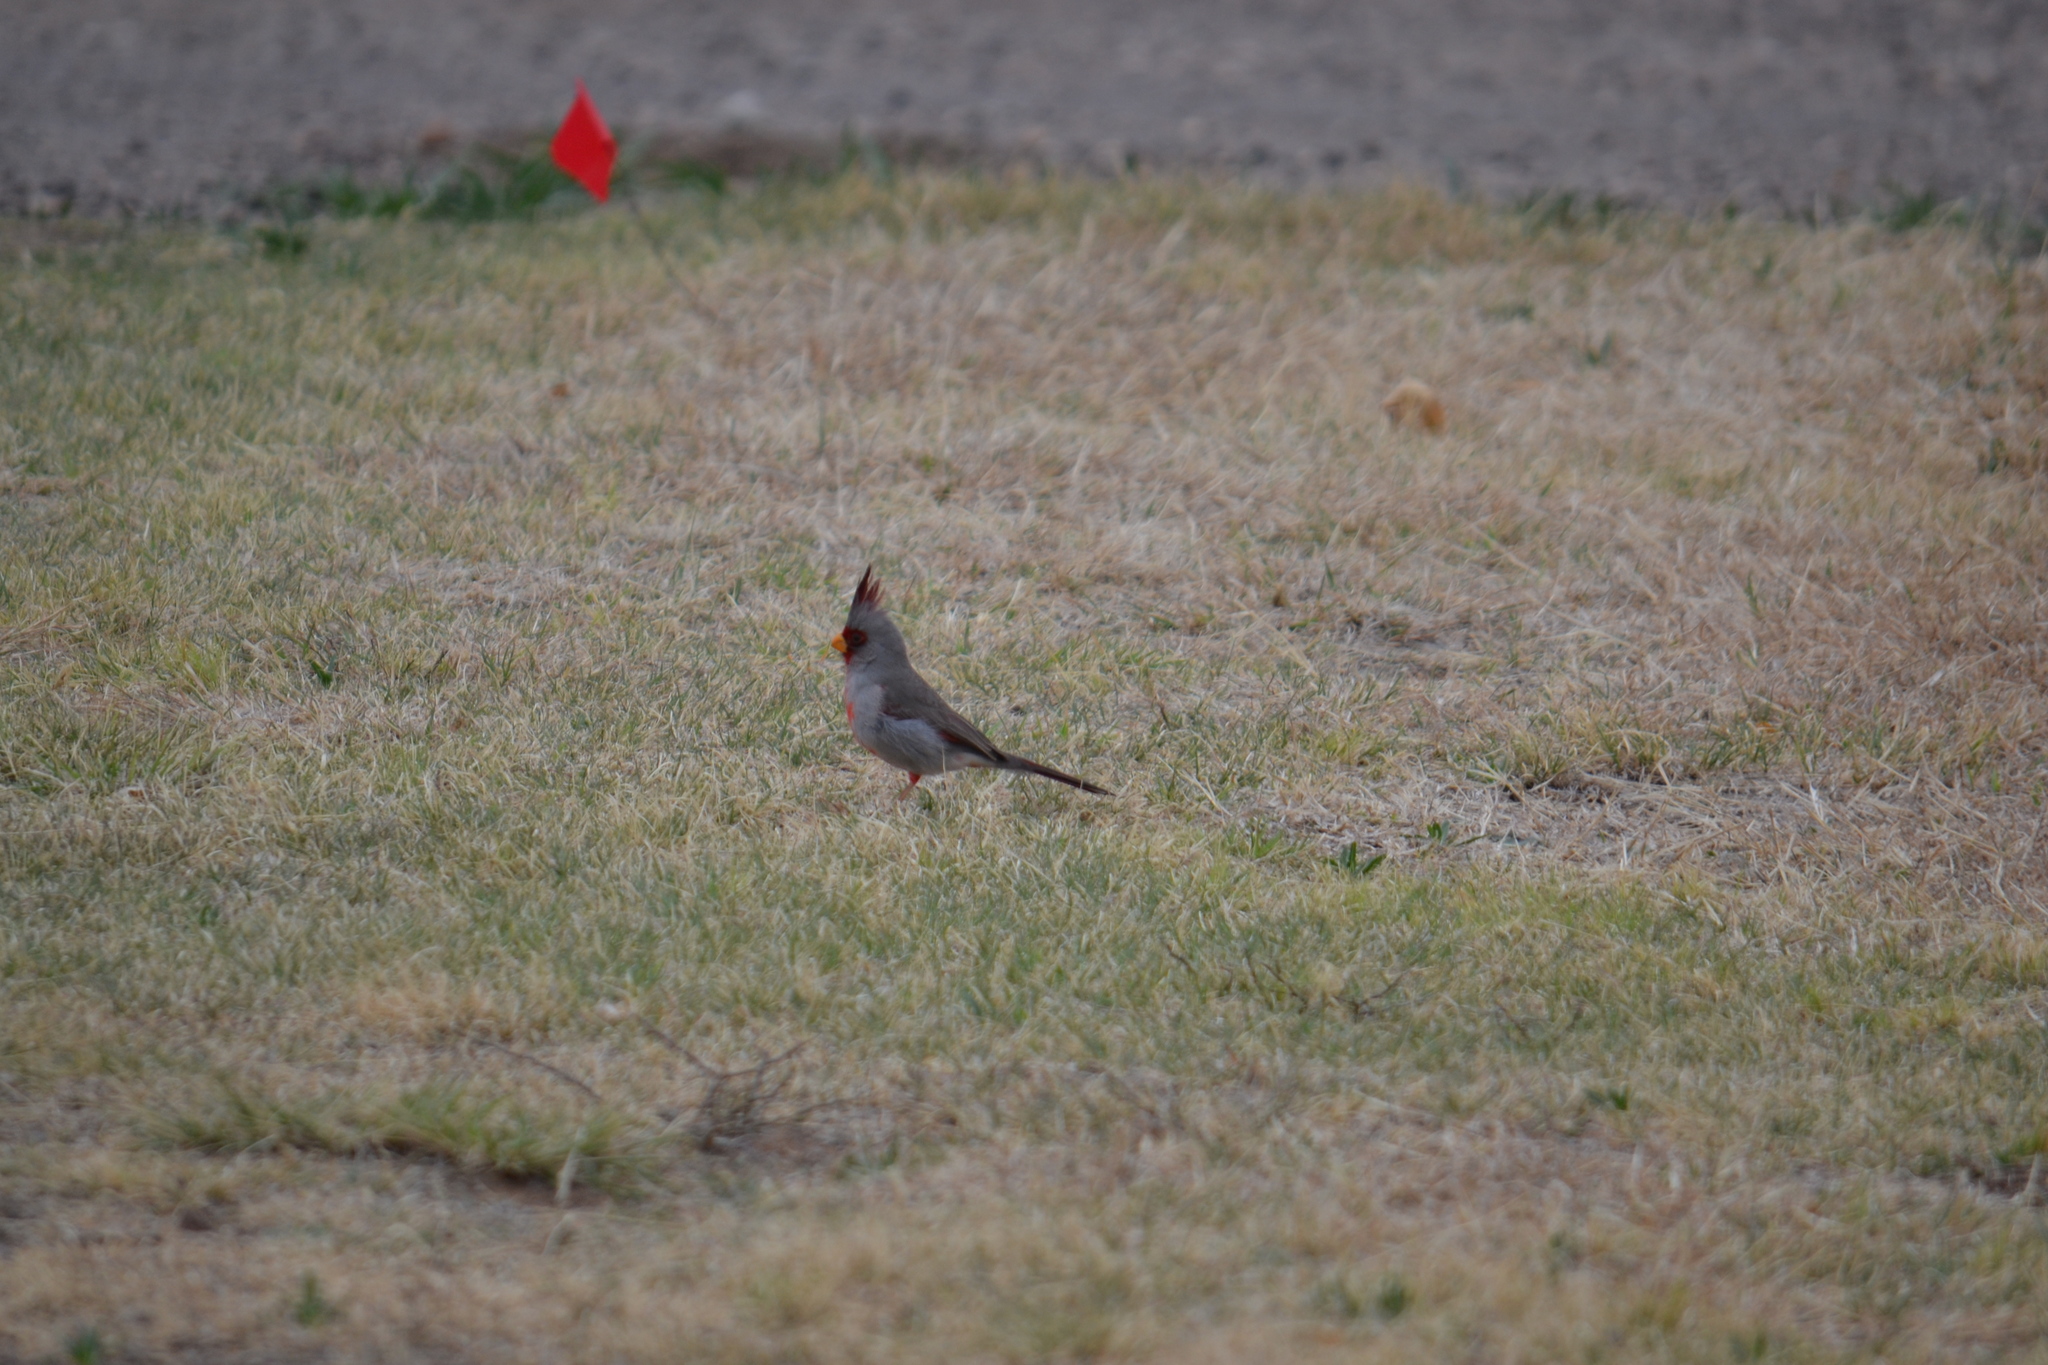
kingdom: Animalia
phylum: Chordata
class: Aves
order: Passeriformes
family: Cardinalidae
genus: Cardinalis
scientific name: Cardinalis sinuatus
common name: Pyrrhuloxia
